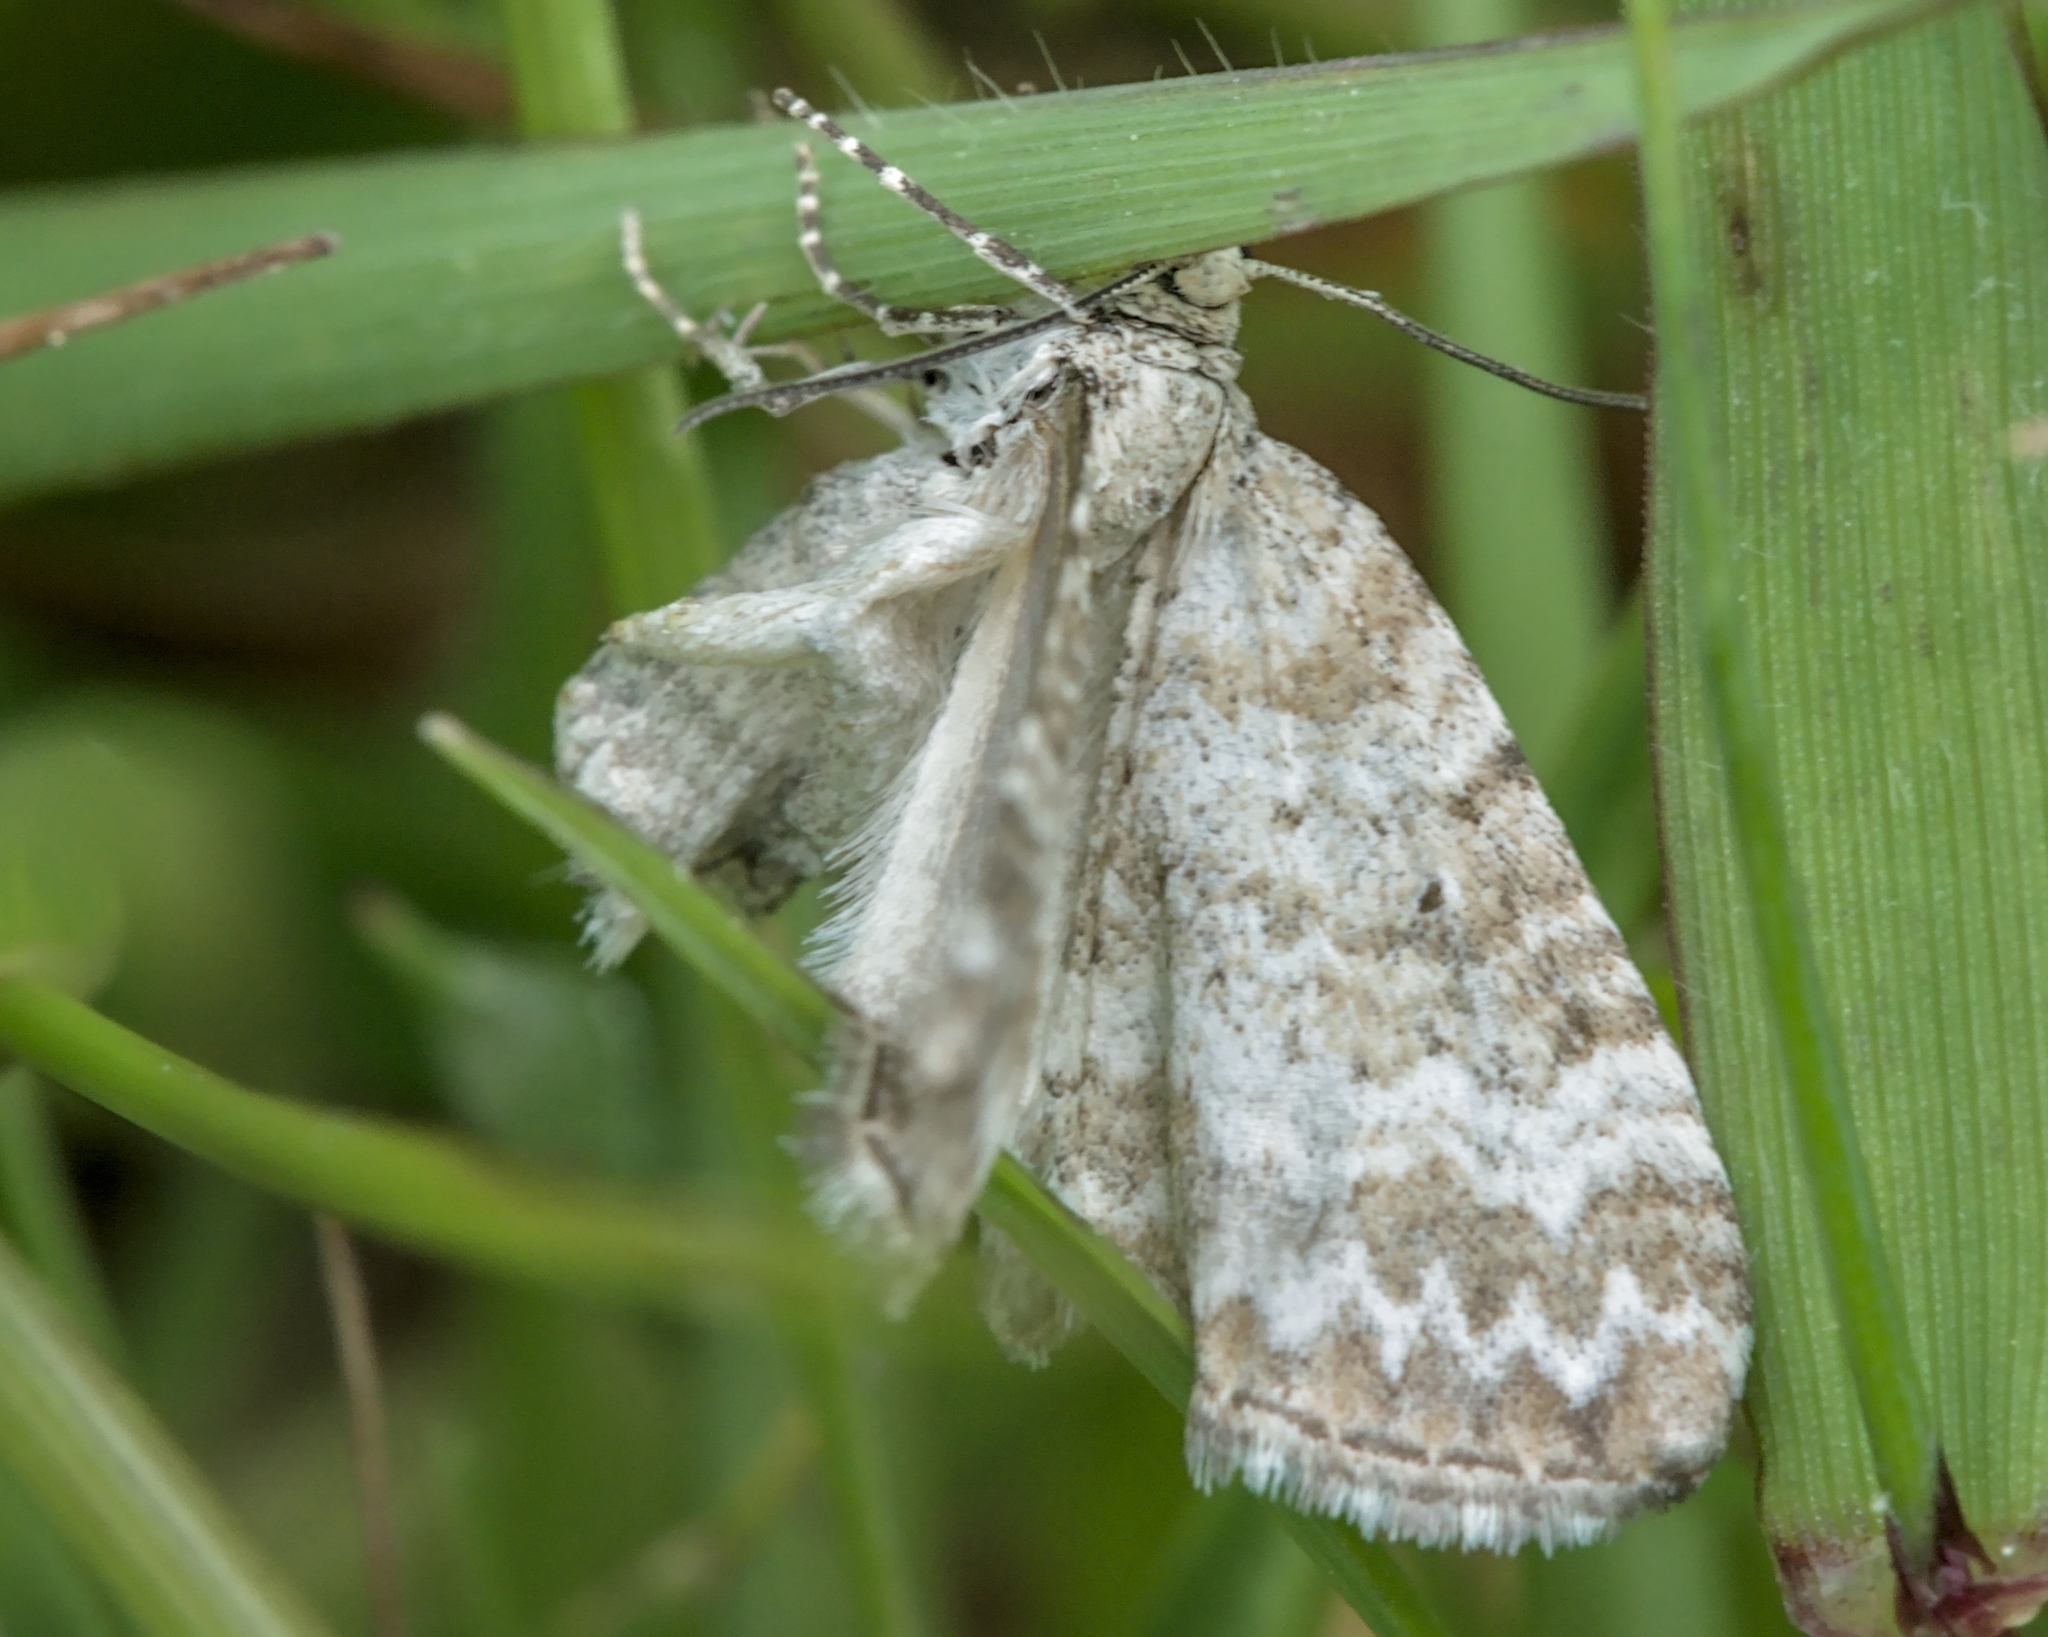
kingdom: Animalia
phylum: Arthropoda
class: Insecta
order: Lepidoptera
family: Geometridae
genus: Perizoma
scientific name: Perizoma albulata
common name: Grass rivulet
